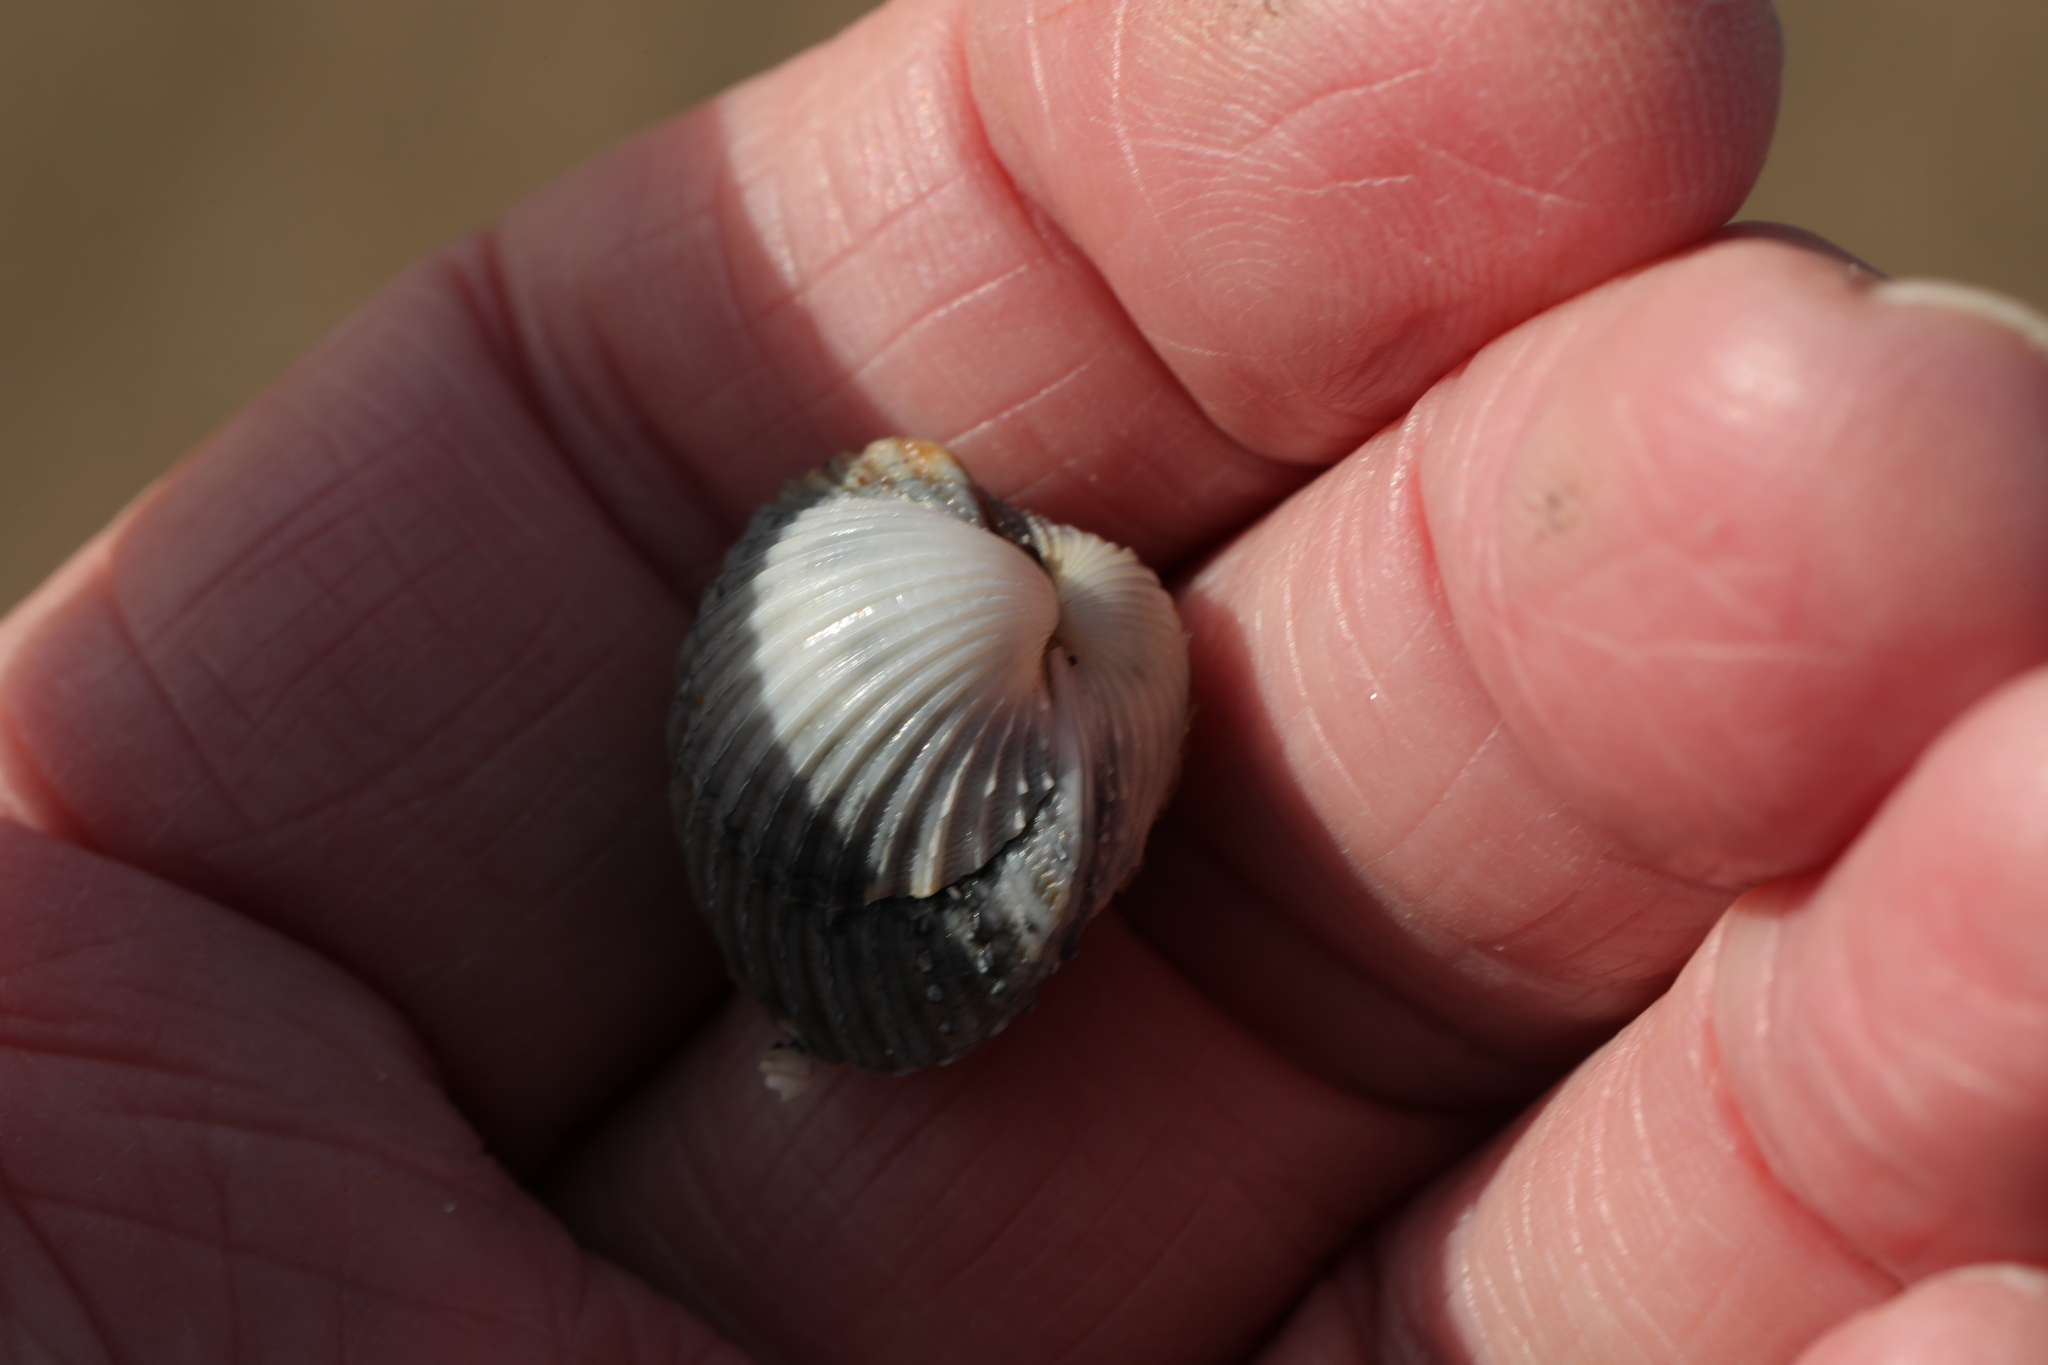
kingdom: Animalia
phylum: Mollusca
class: Bivalvia
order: Cardiida
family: Cardiidae
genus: Acanthocardia
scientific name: Acanthocardia echinata
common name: Prickly cockle
